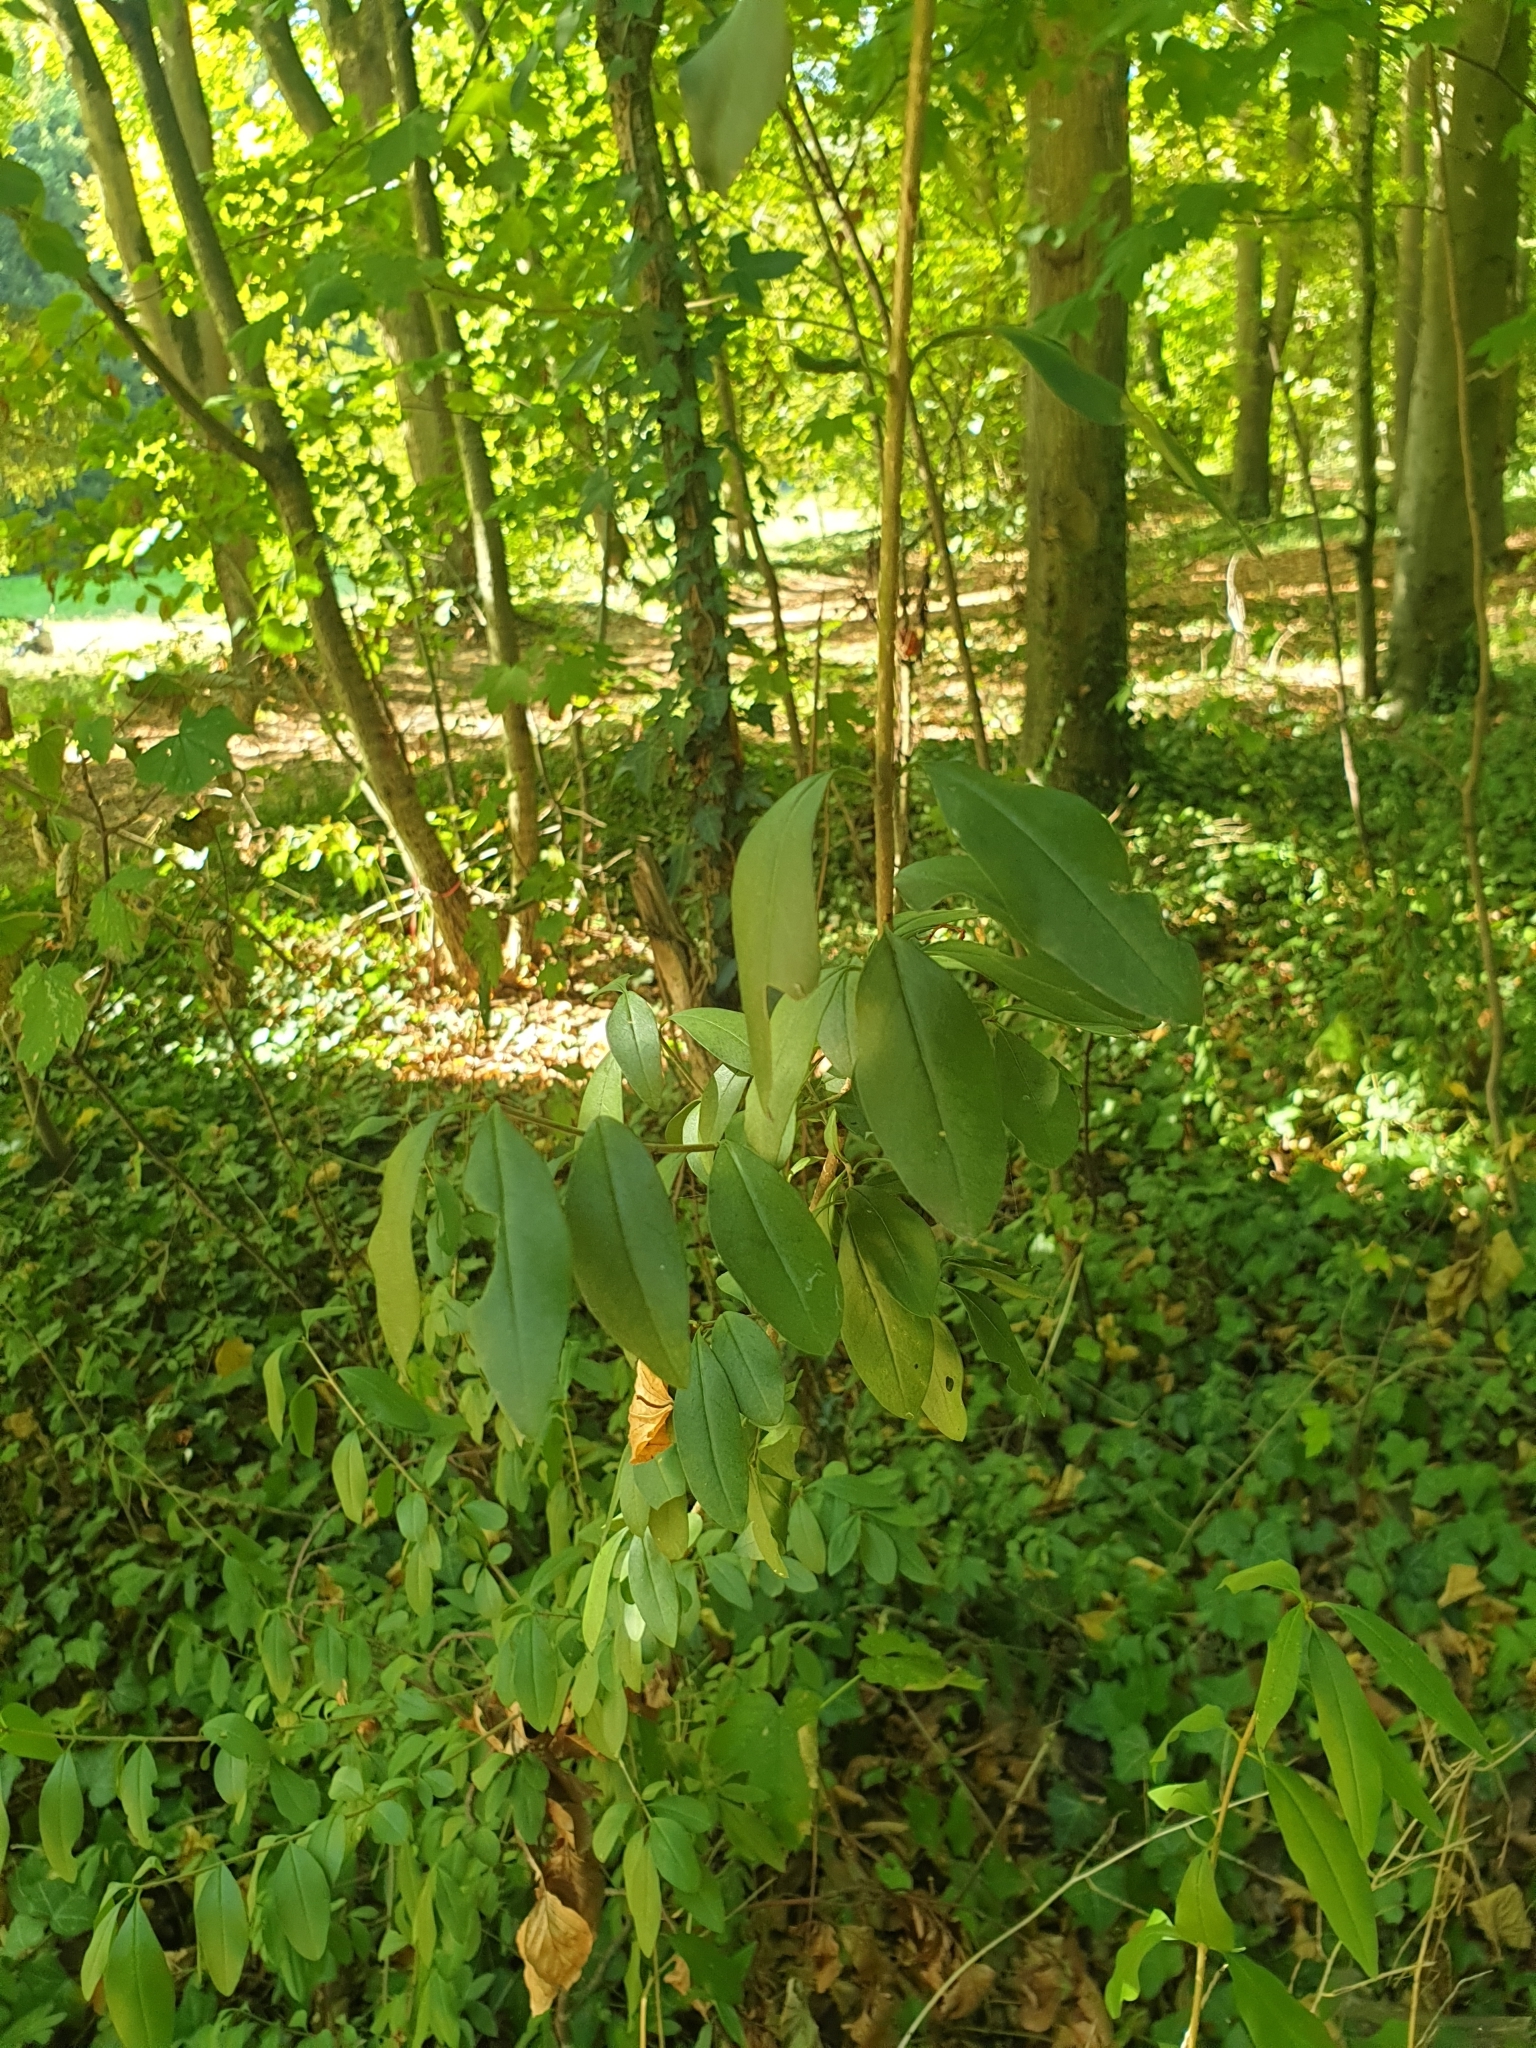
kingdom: Plantae
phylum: Tracheophyta
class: Magnoliopsida
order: Lamiales
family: Oleaceae
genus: Ligustrum
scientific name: Ligustrum vulgare
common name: Wild privet
